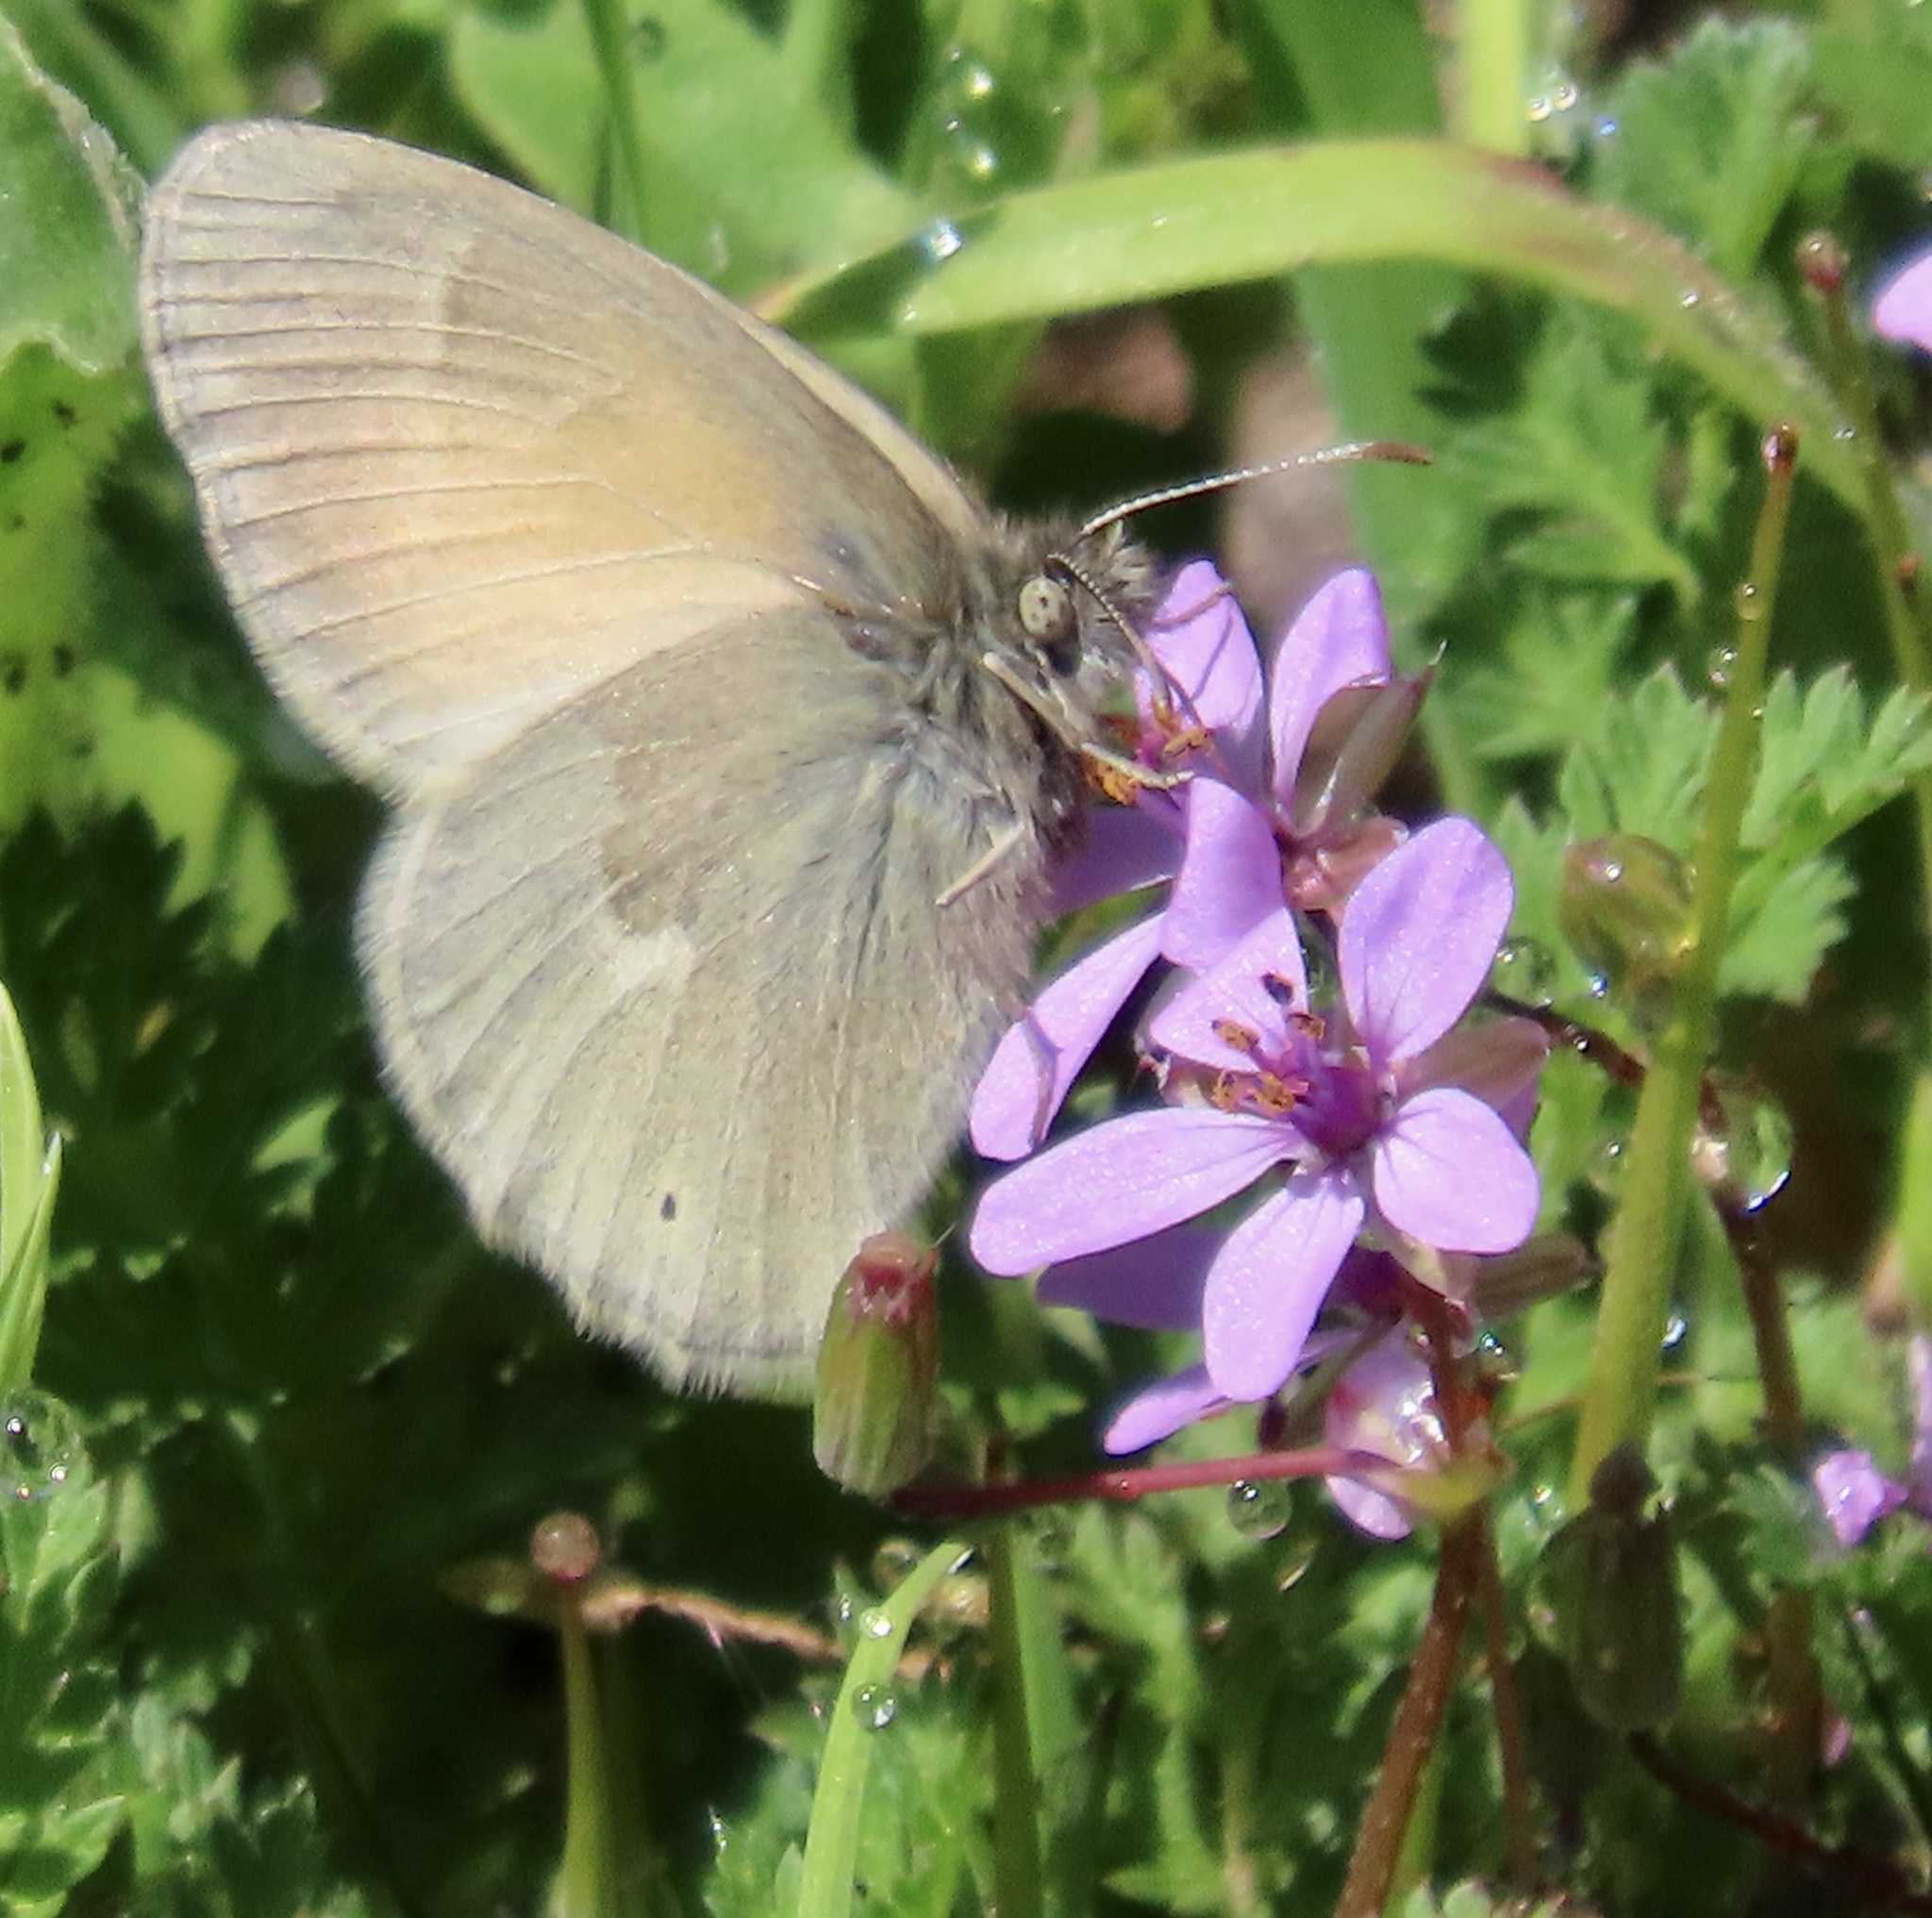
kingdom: Animalia
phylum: Arthropoda
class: Insecta
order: Lepidoptera
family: Nymphalidae
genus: Coenonympha
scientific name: Coenonympha california
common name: Common ringlet
